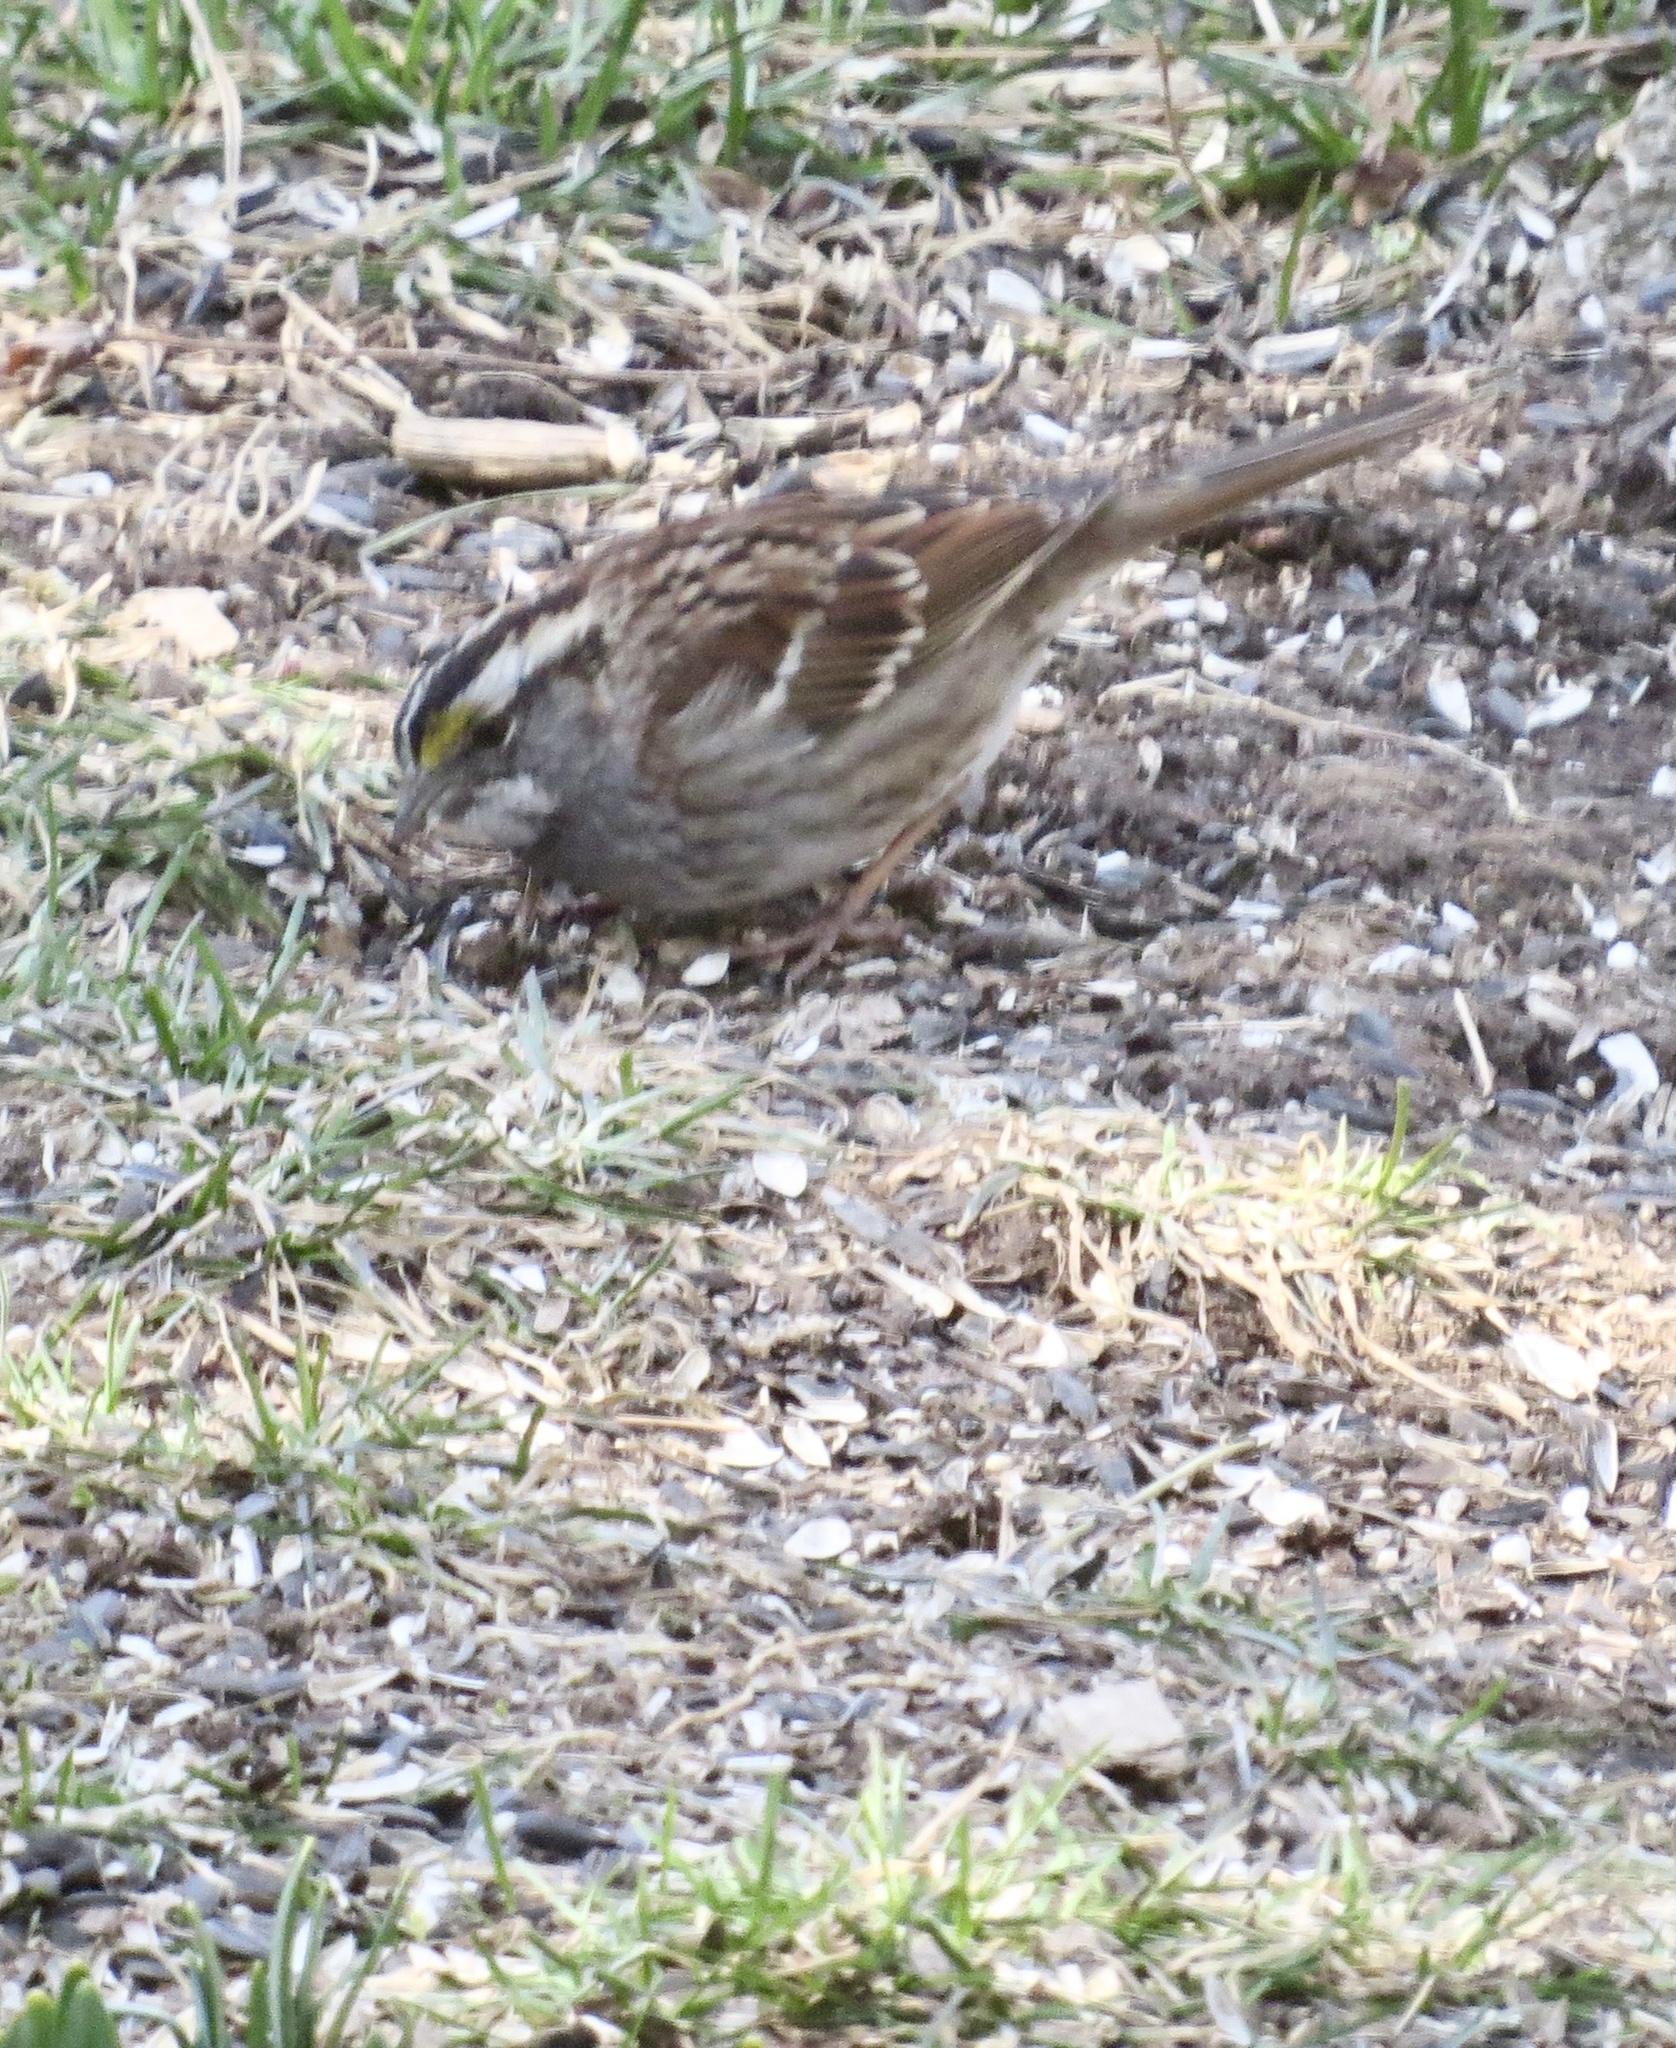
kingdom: Animalia
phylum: Chordata
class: Aves
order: Passeriformes
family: Passerellidae
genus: Zonotrichia
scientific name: Zonotrichia albicollis
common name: White-throated sparrow
